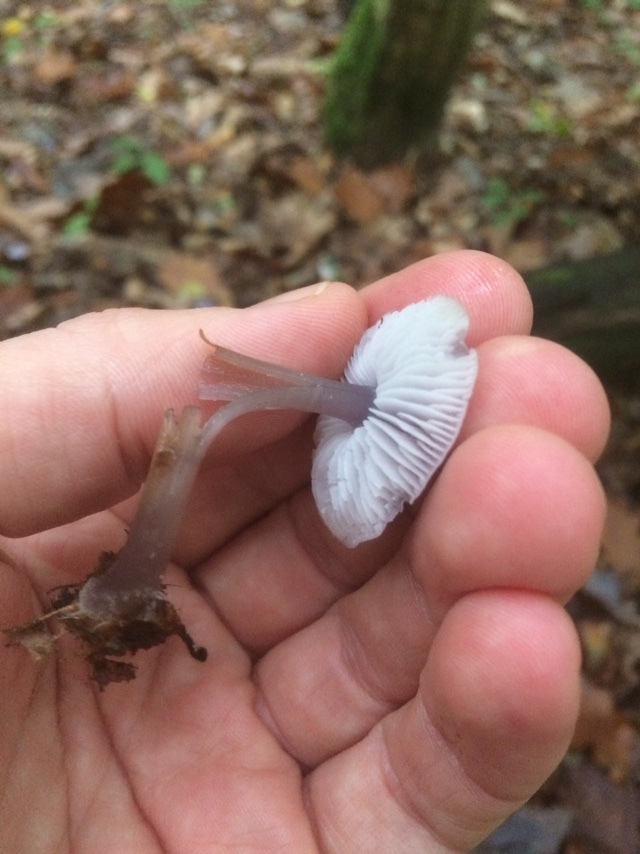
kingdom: Fungi
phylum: Basidiomycota
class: Agaricomycetes
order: Agaricales
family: Mycenaceae
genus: Mycena
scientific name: Mycena pura
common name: Lilac bonnet
